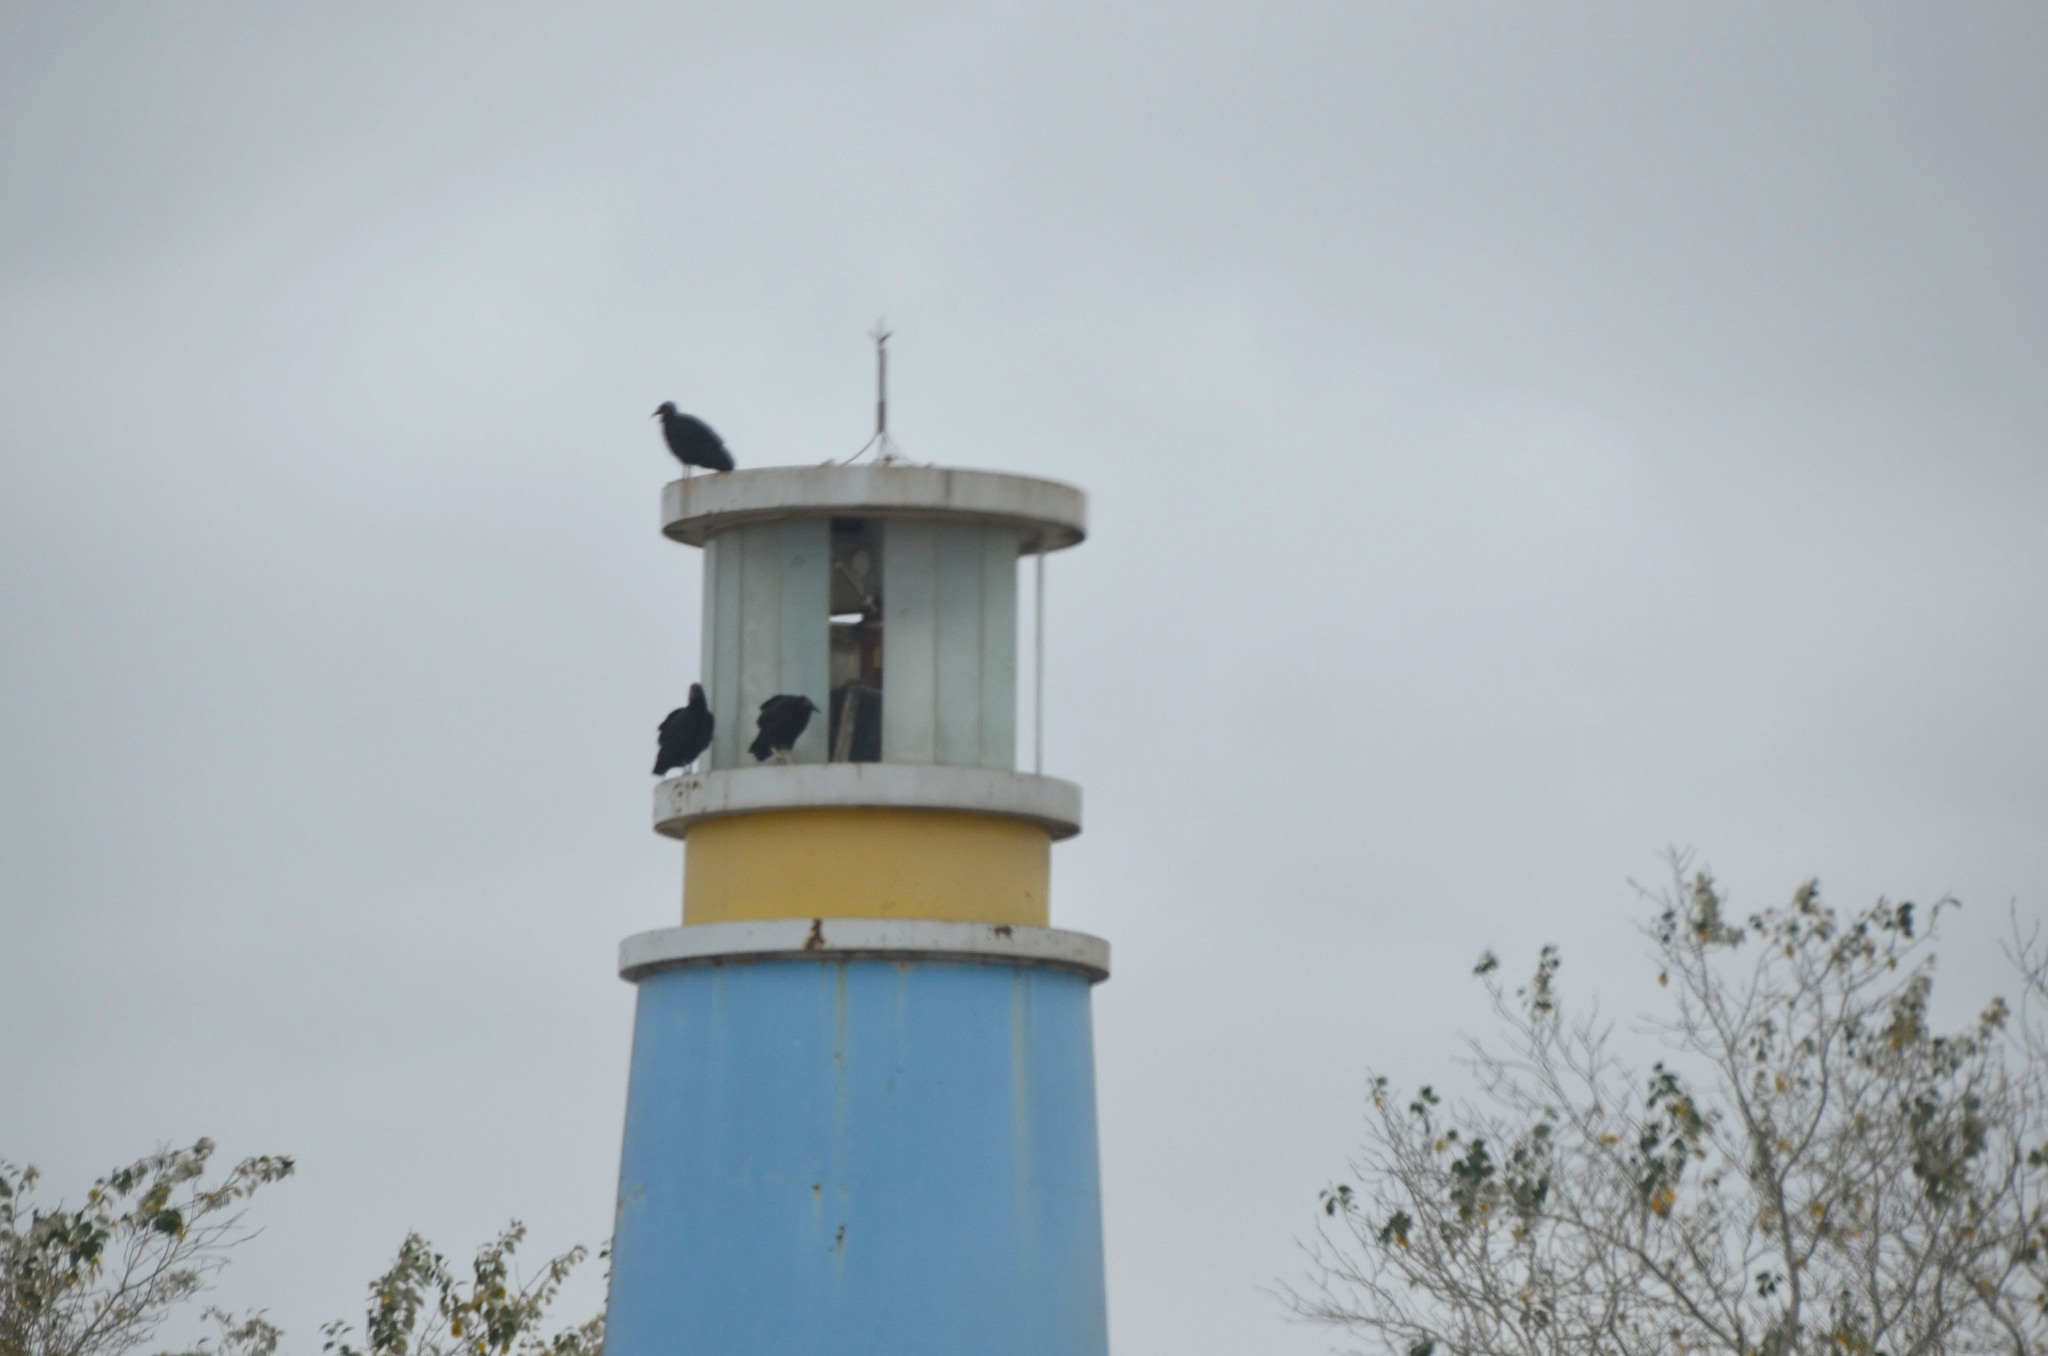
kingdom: Animalia
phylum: Chordata
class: Aves
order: Accipitriformes
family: Cathartidae
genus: Coragyps
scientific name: Coragyps atratus
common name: Black vulture
